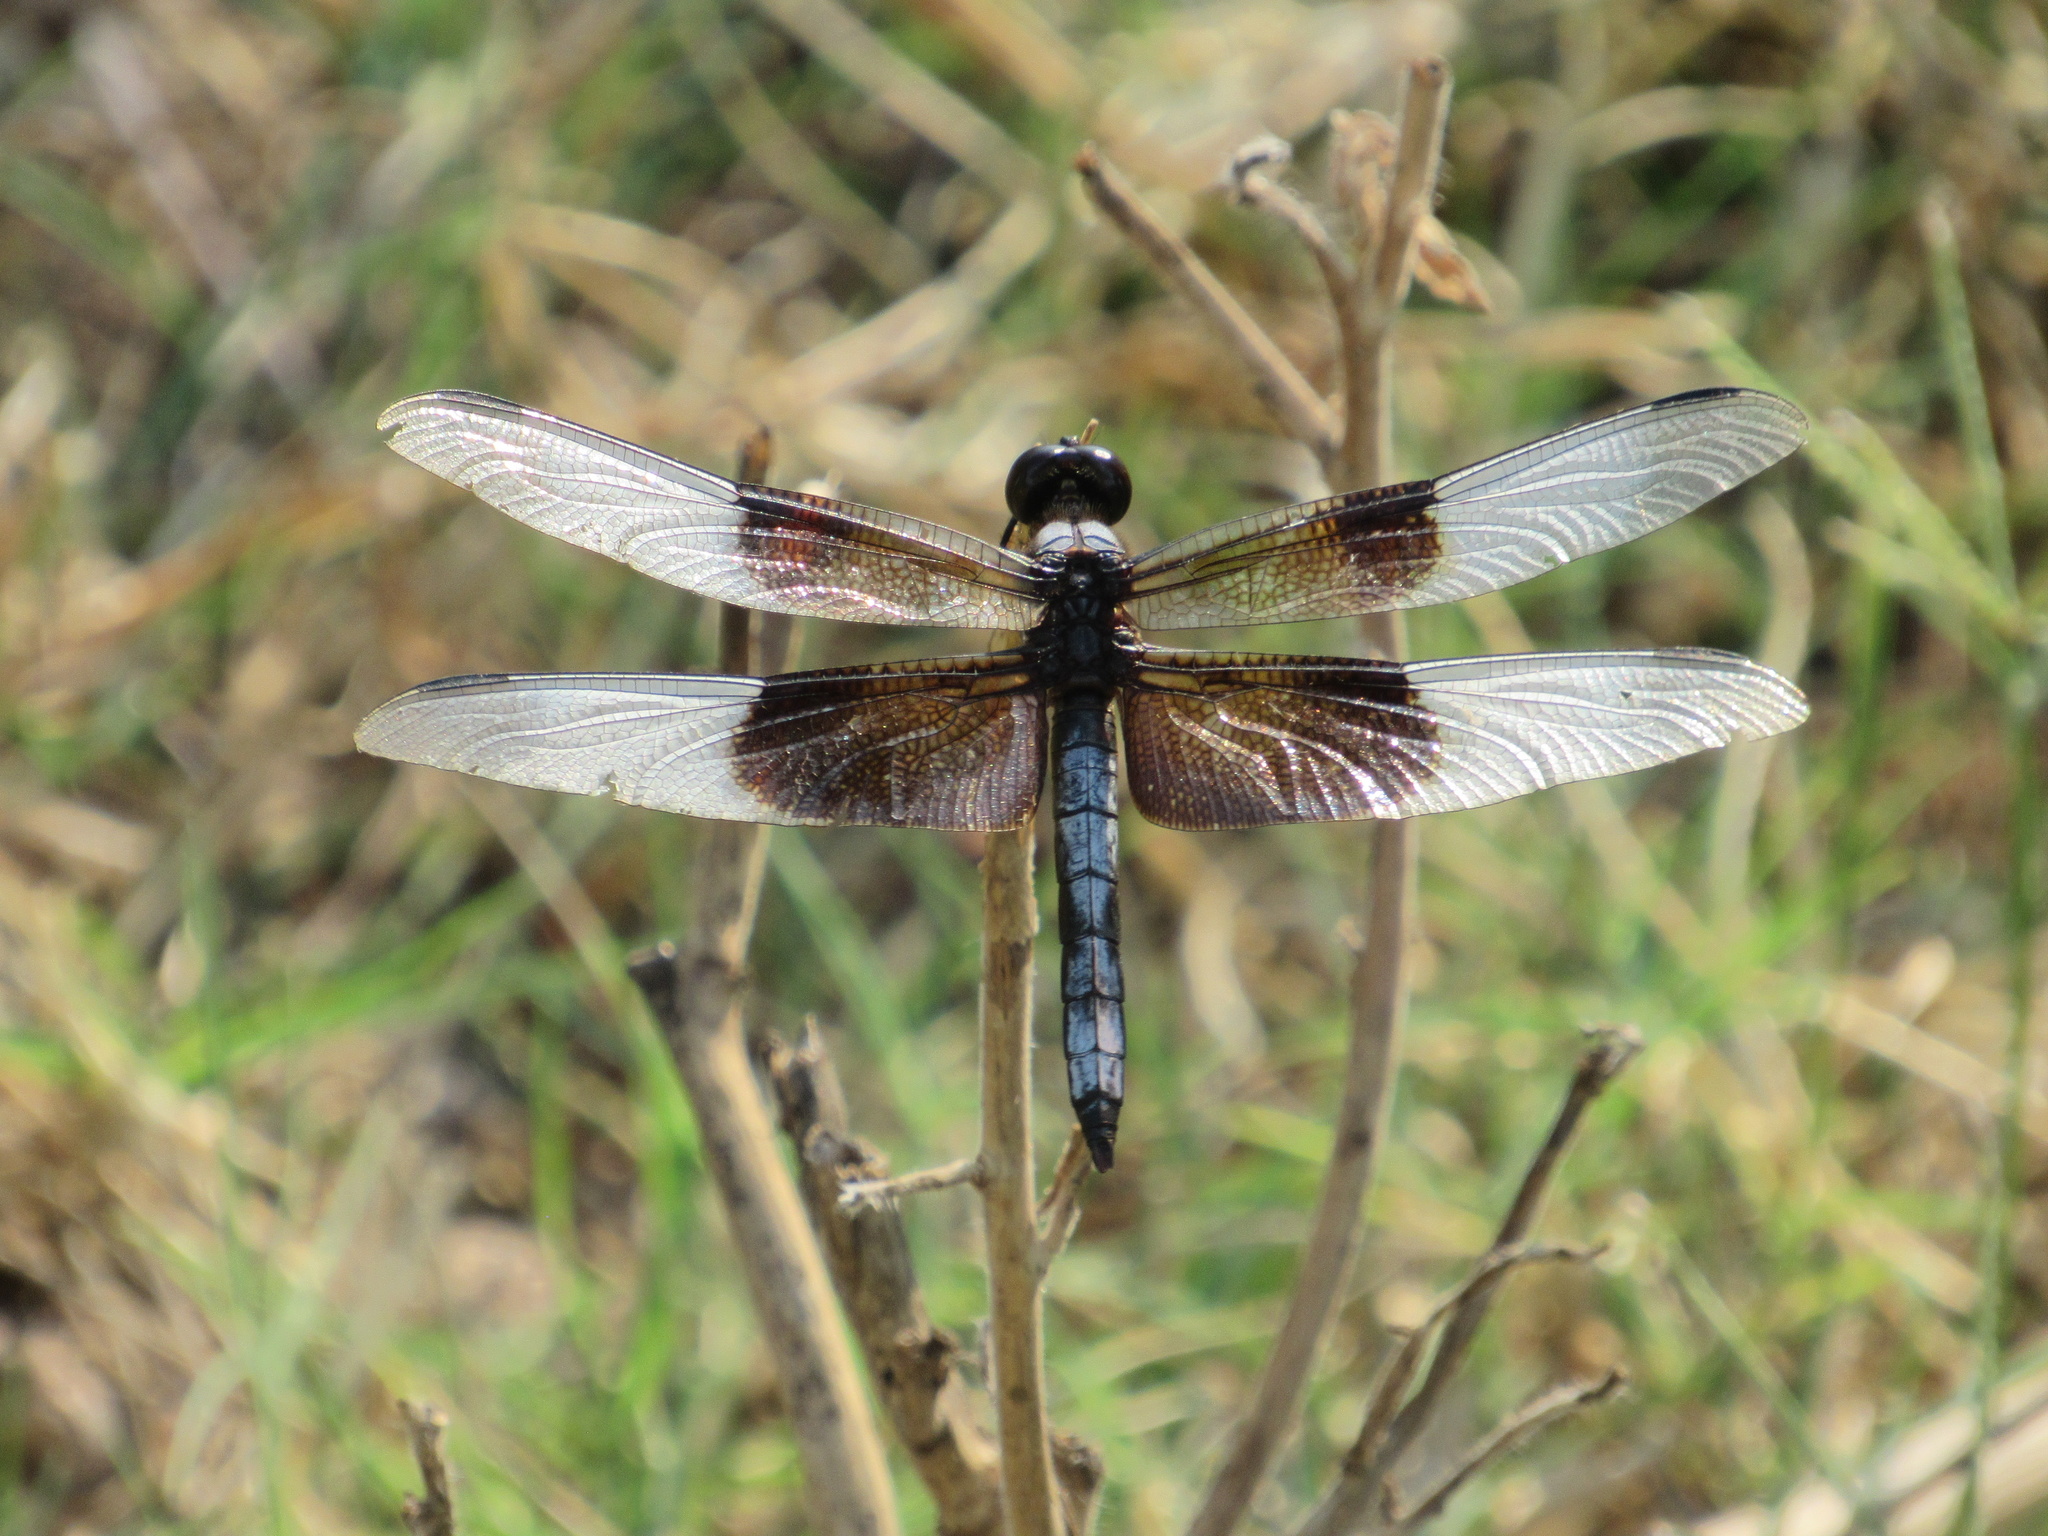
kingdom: Animalia
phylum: Arthropoda
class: Insecta
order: Odonata
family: Libellulidae
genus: Libellula
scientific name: Libellula luctuosa
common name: Widow skimmer
